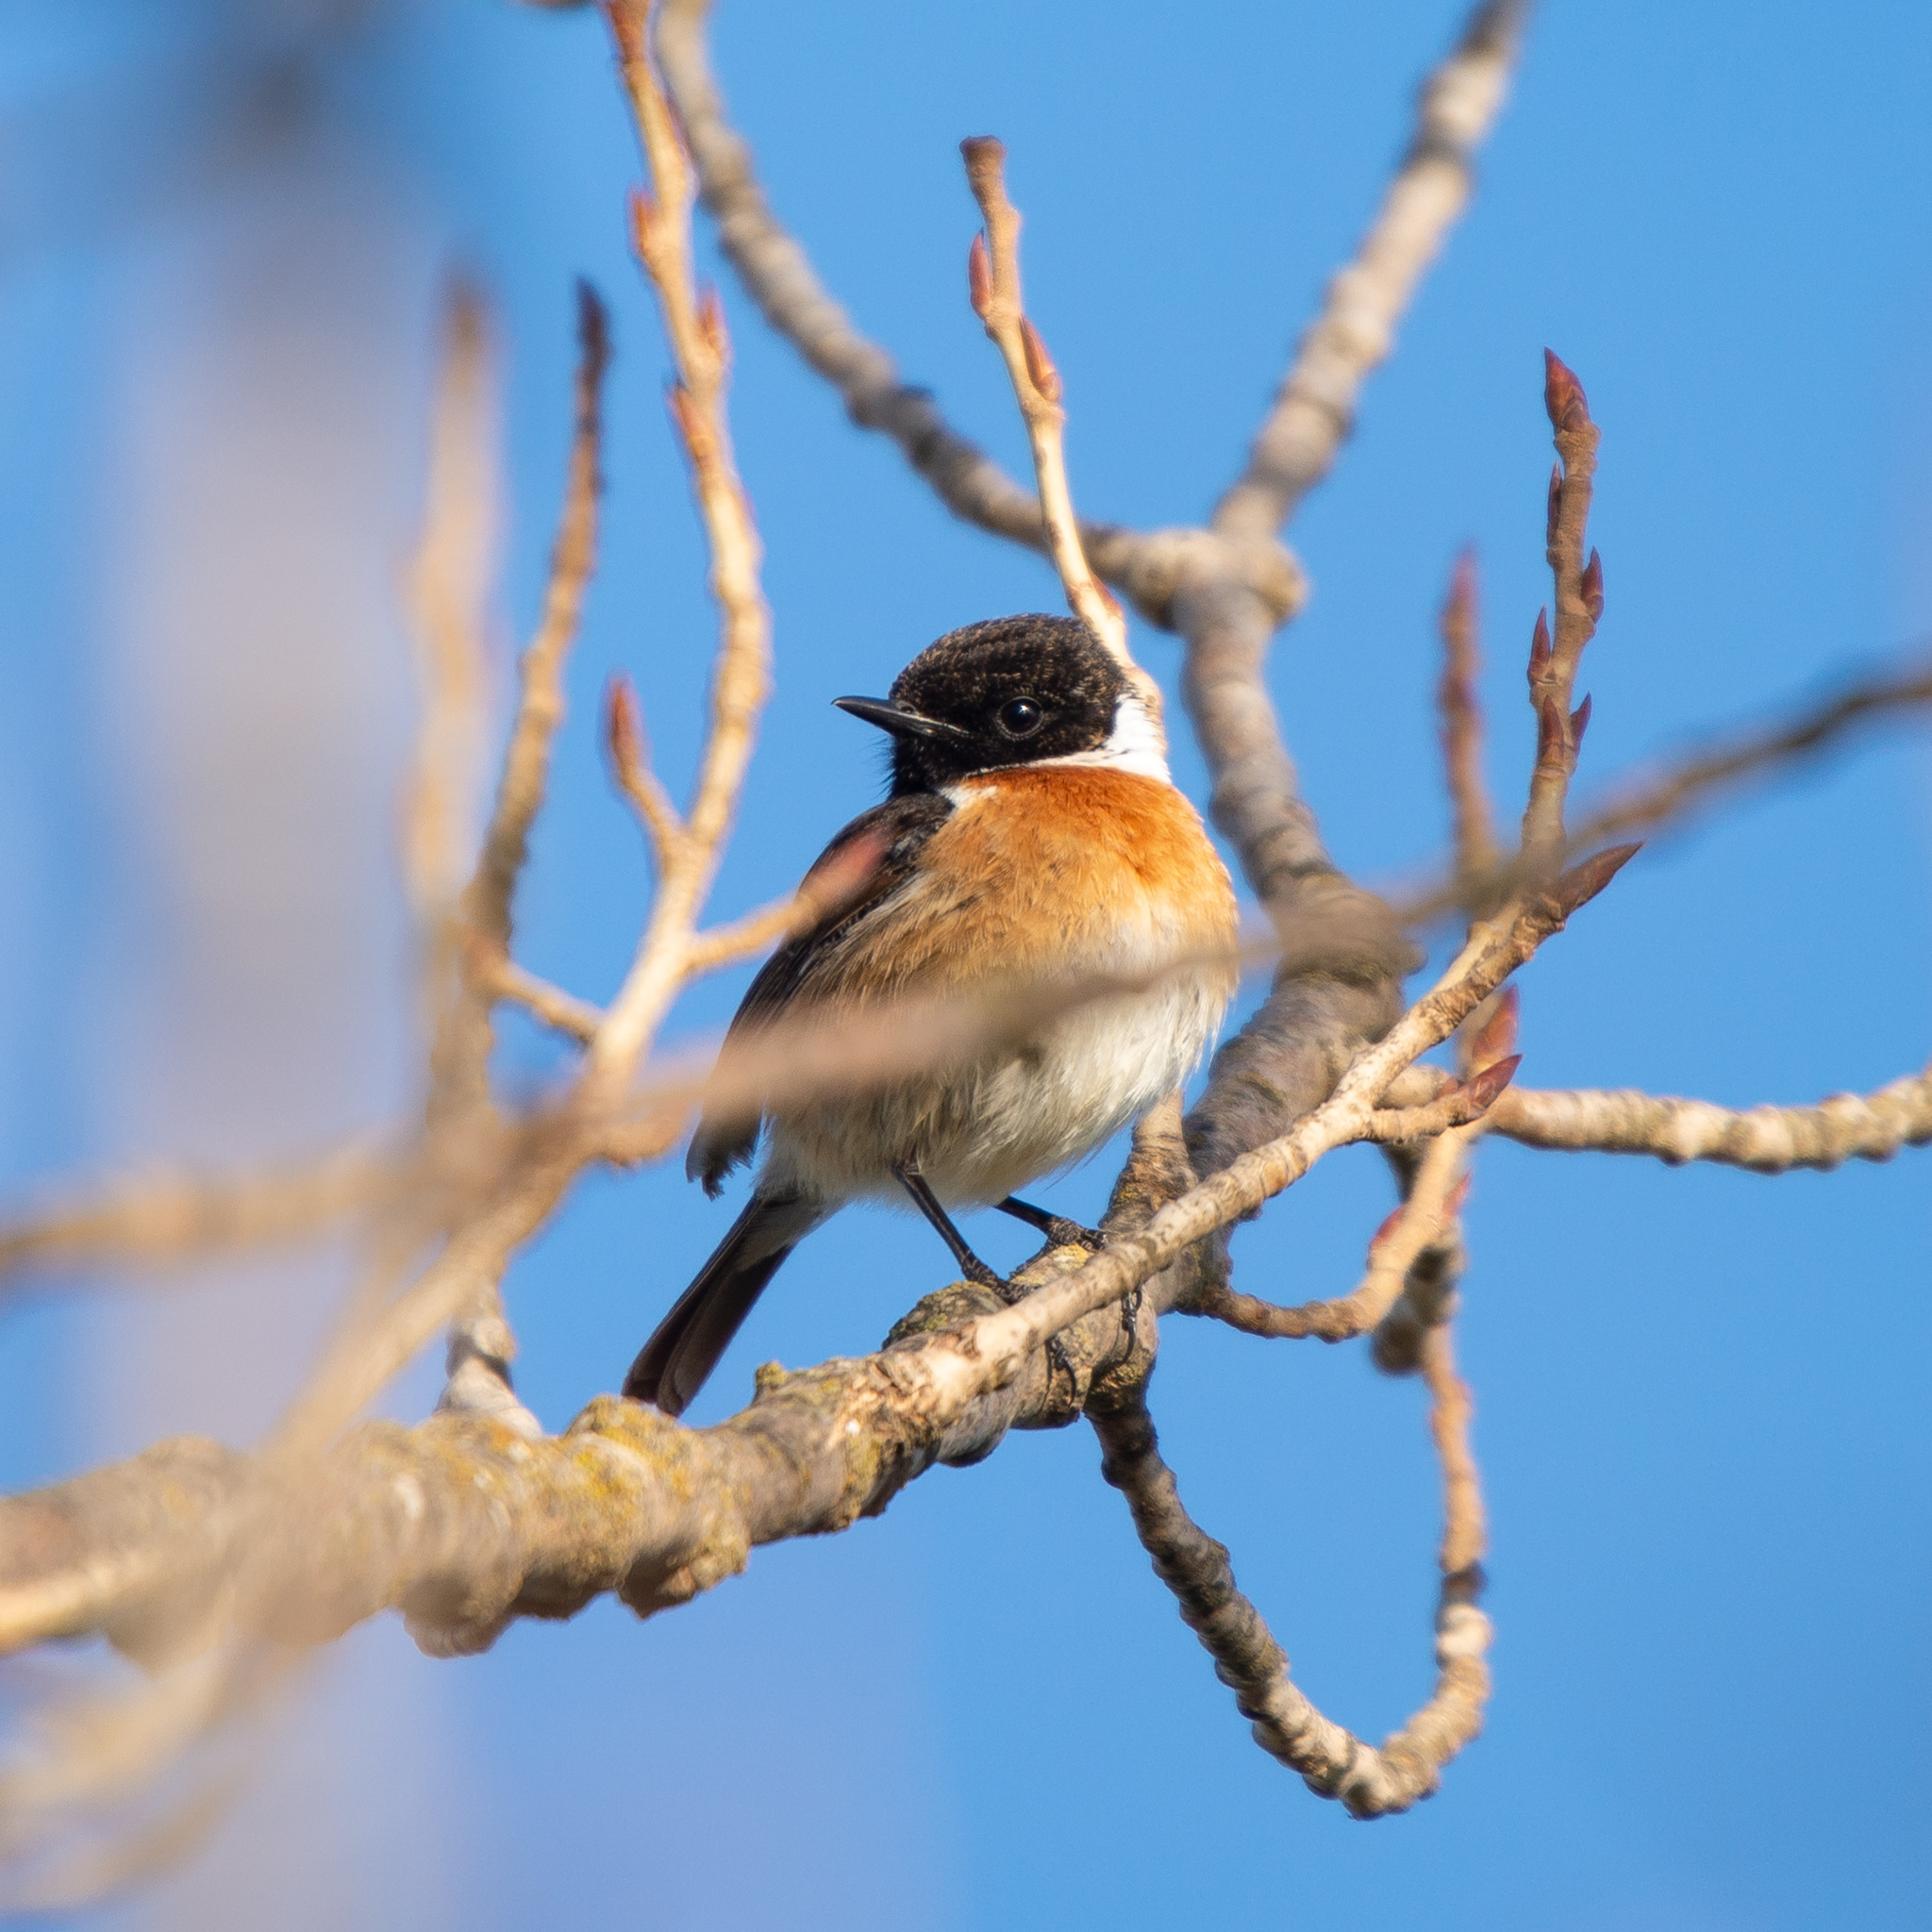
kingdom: Animalia
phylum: Chordata
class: Aves
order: Passeriformes
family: Muscicapidae
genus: Saxicola
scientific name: Saxicola rubicola
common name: European stonechat
